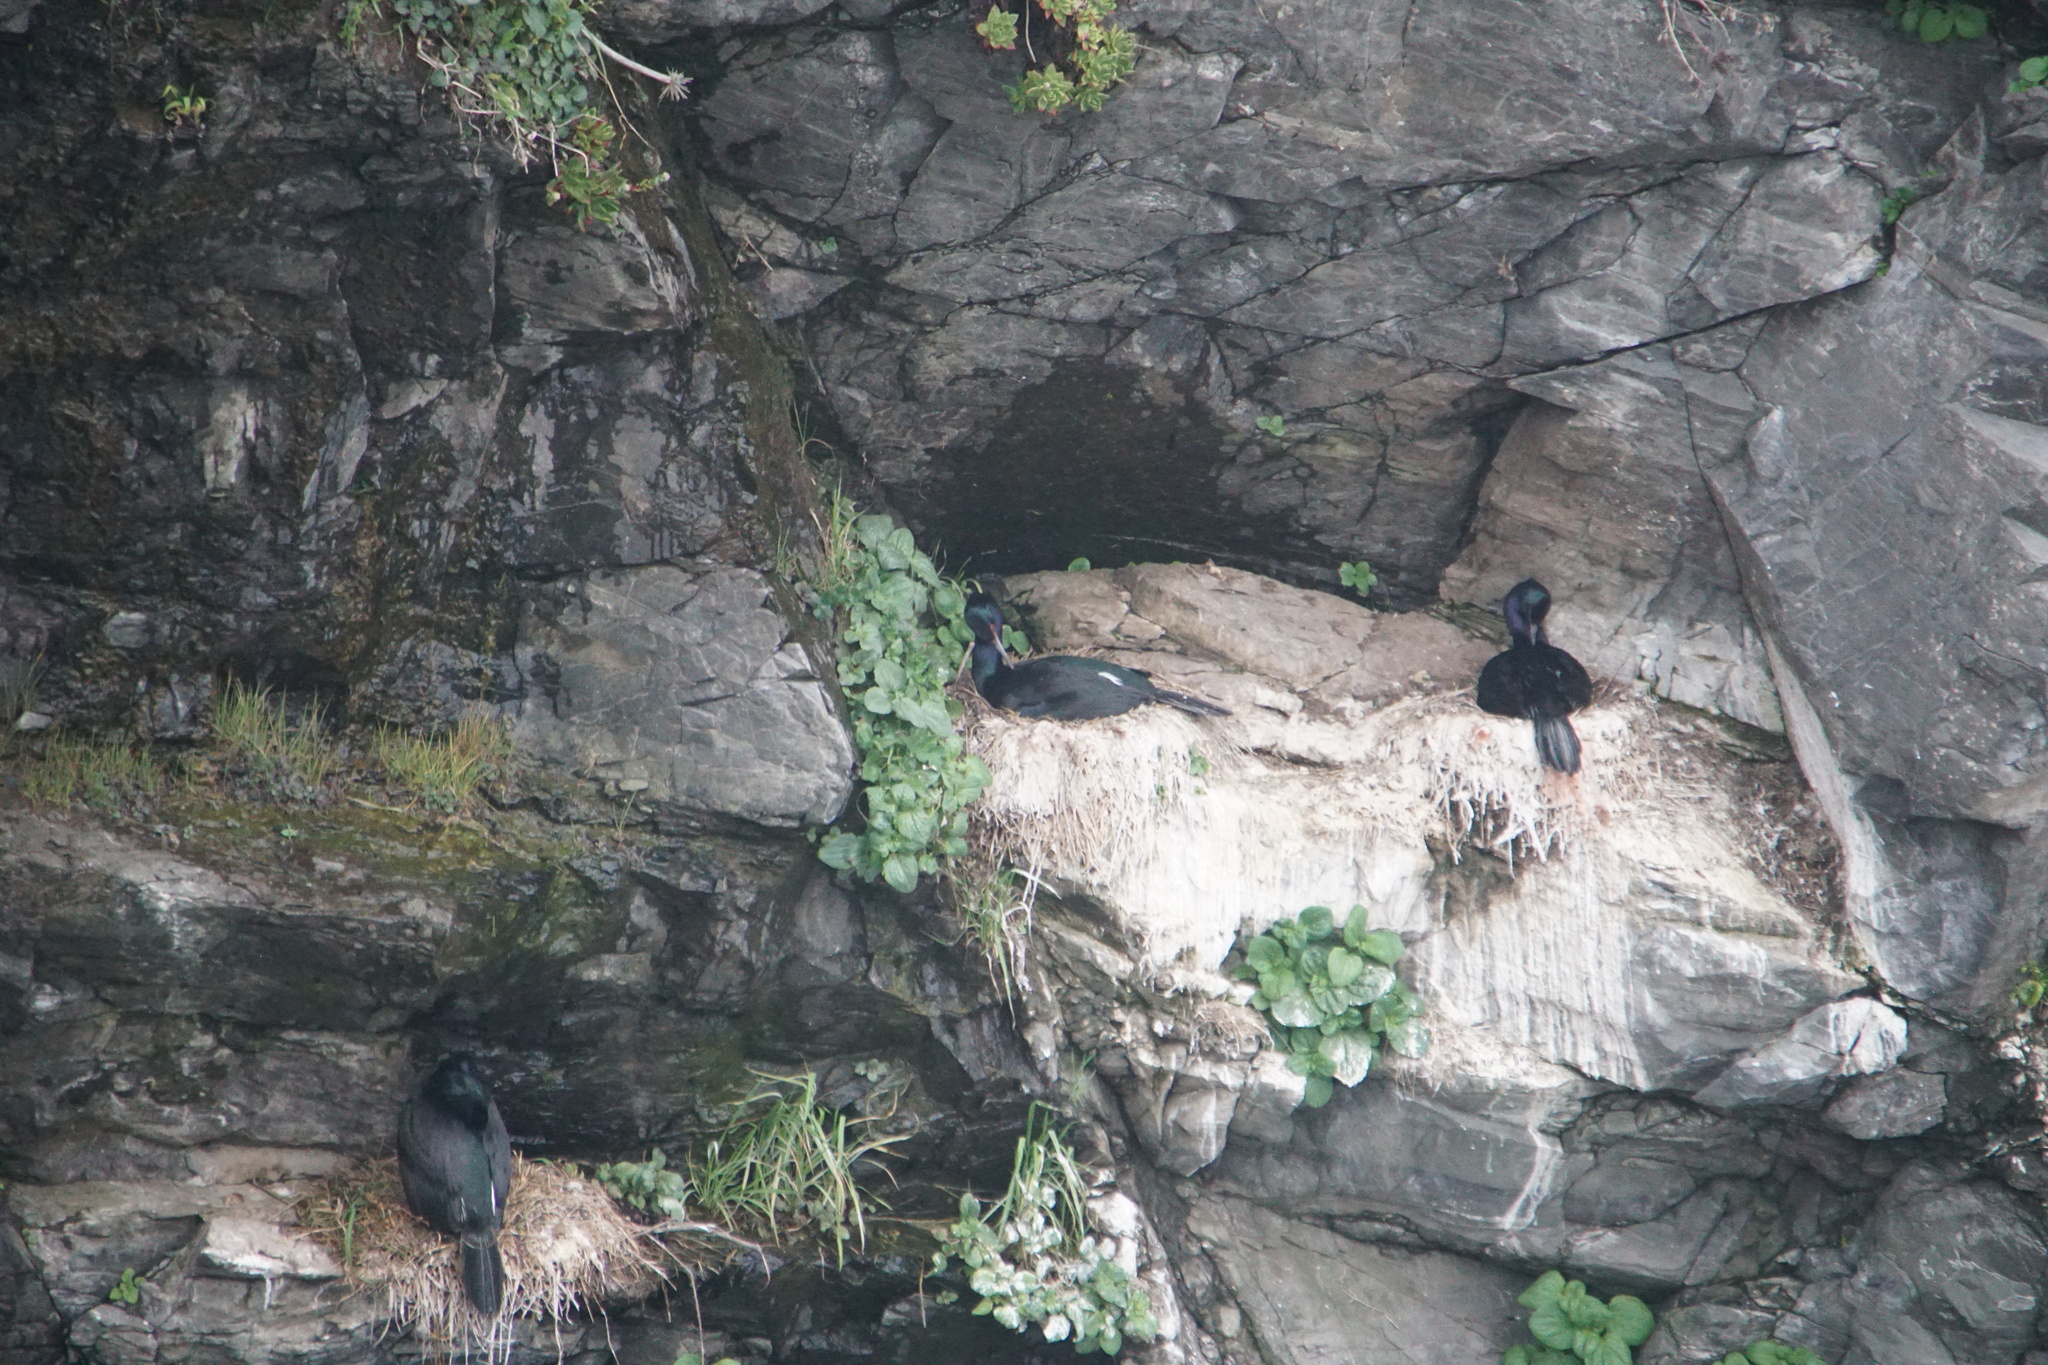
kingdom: Animalia
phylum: Chordata
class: Aves
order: Suliformes
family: Phalacrocoracidae
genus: Phalacrocorax
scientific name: Phalacrocorax pelagicus
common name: Pelagic cormorant
